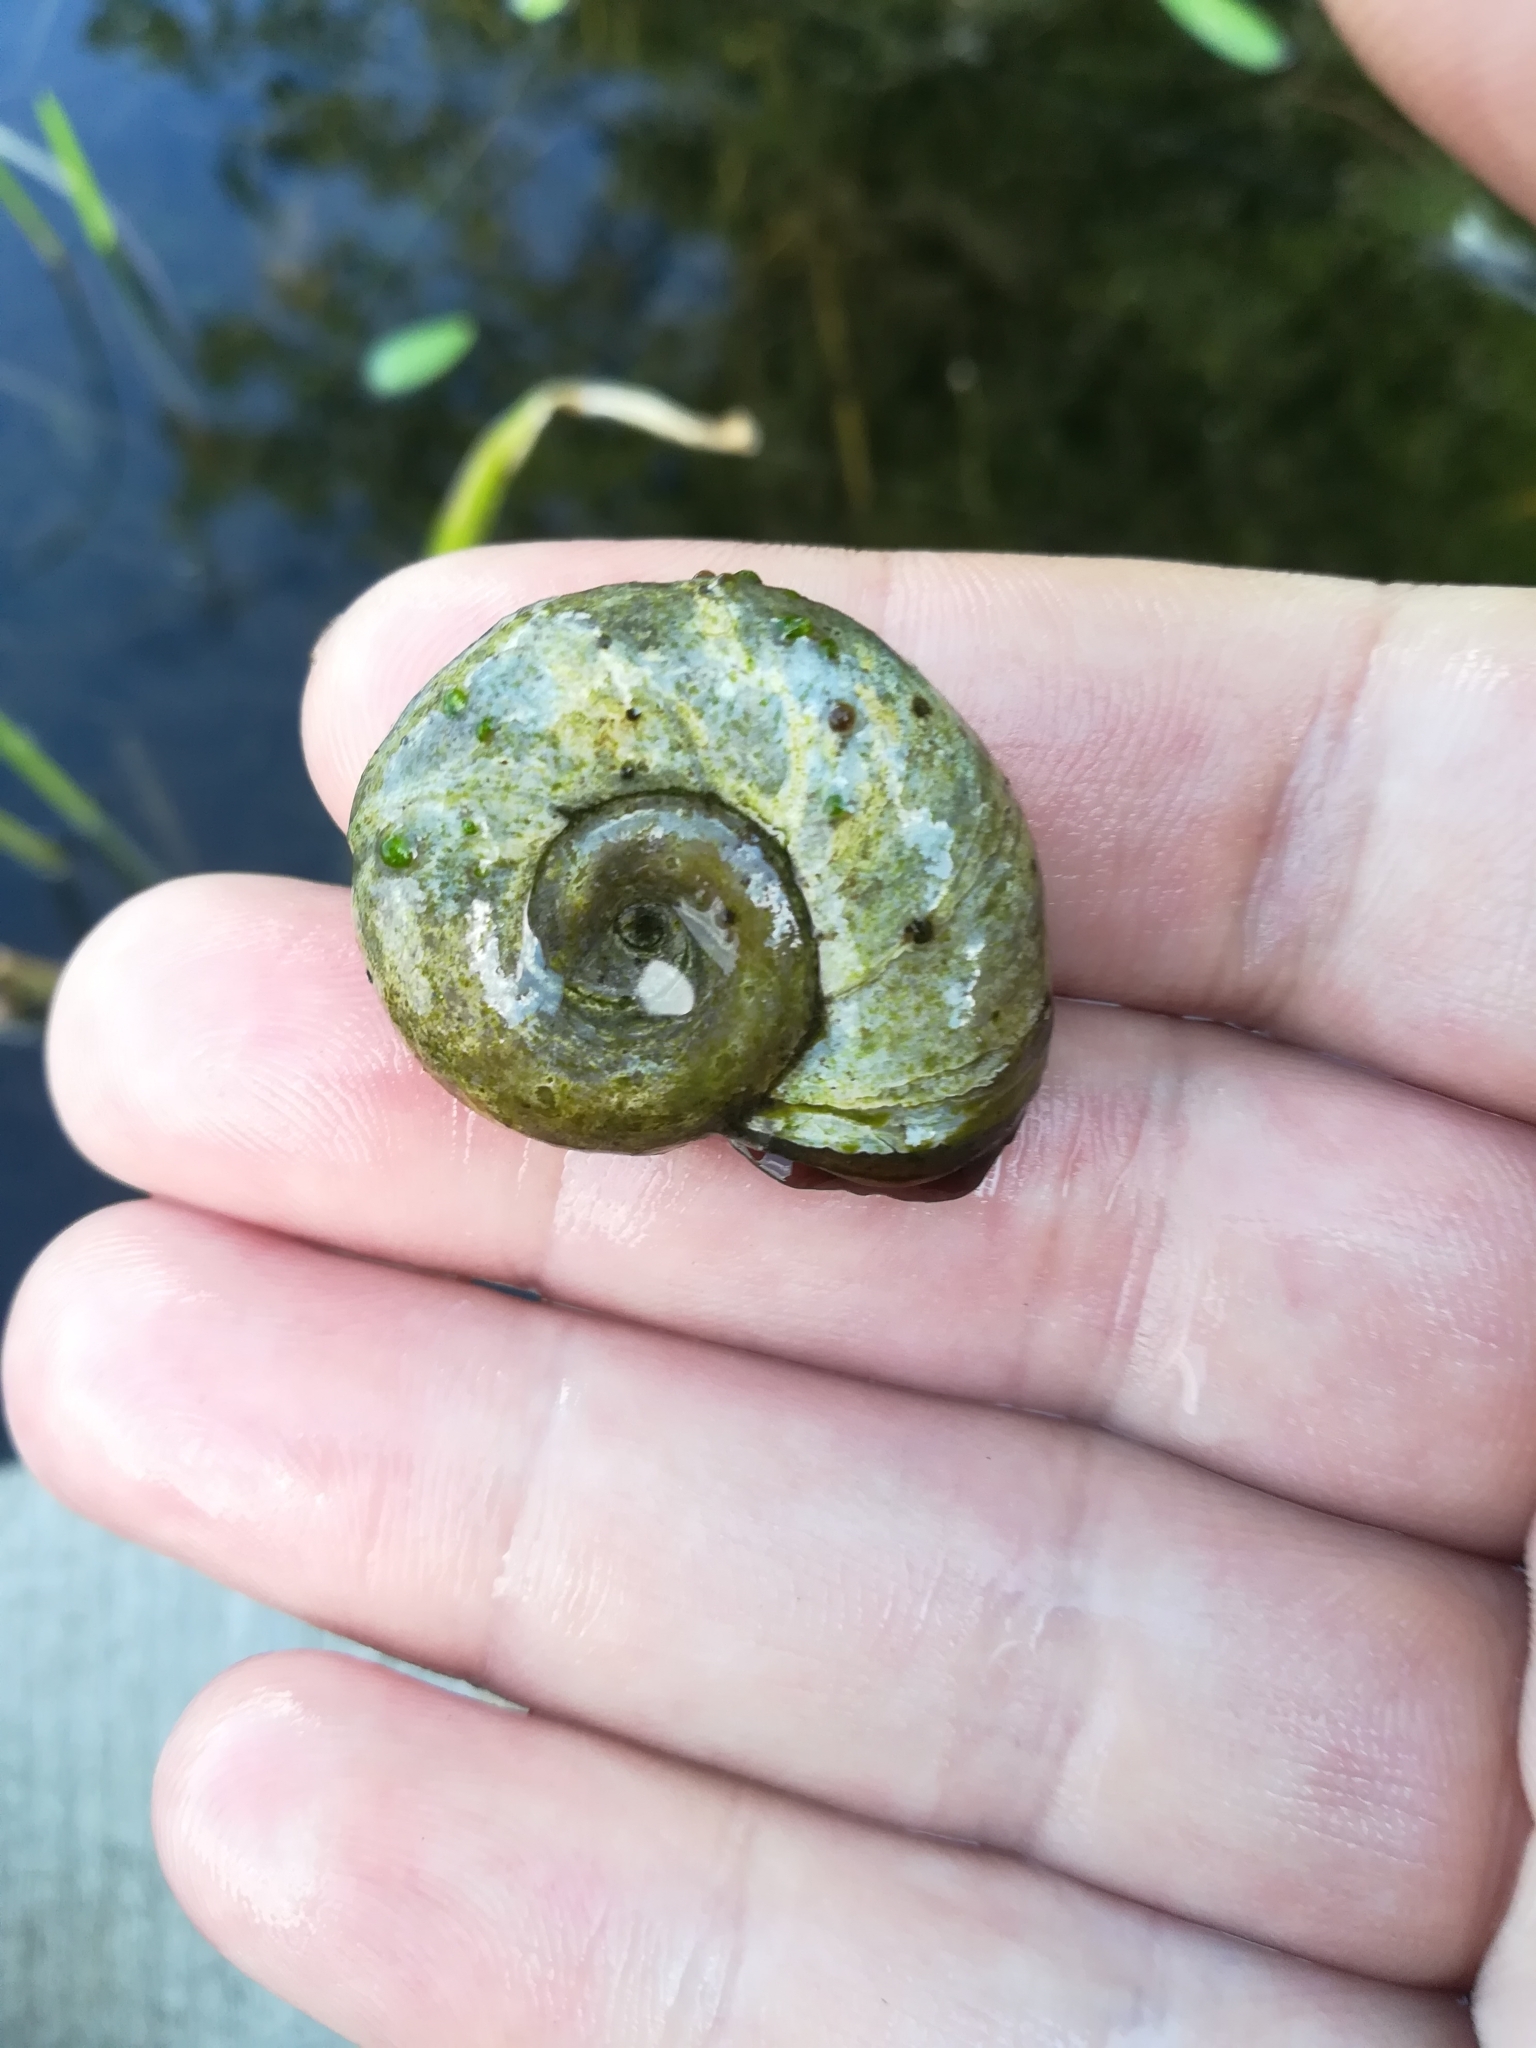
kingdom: Animalia
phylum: Mollusca
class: Gastropoda
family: Planorbidae
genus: Planorbarius
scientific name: Planorbarius corneus
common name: Great ramshorn
